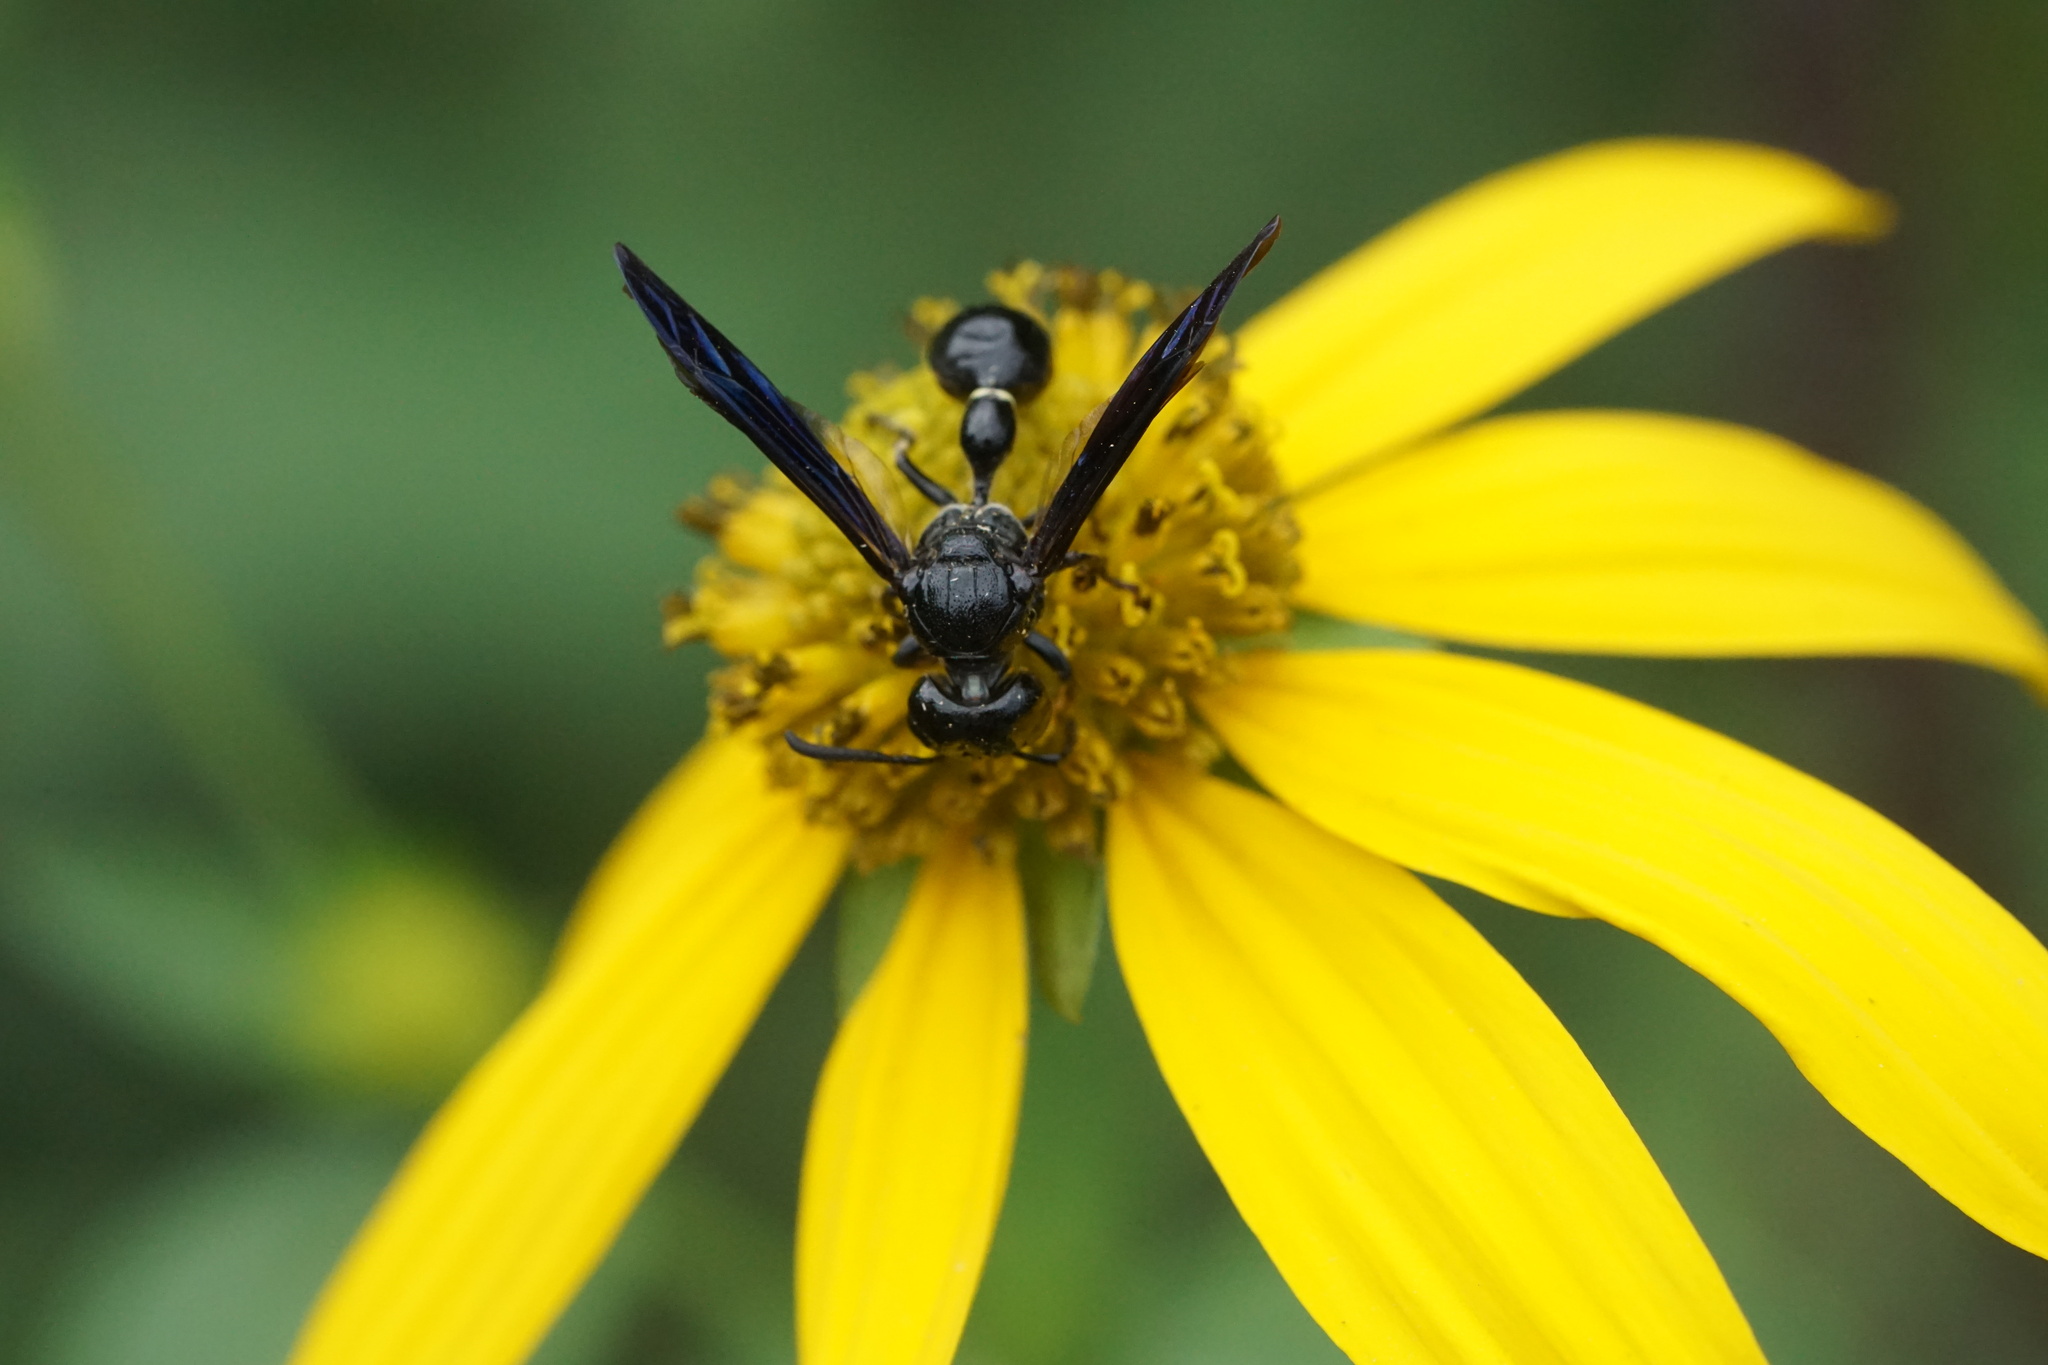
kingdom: Animalia
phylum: Arthropoda
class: Insecta
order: Hymenoptera
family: Eumenidae
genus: Zethus
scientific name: Zethus spinipes
